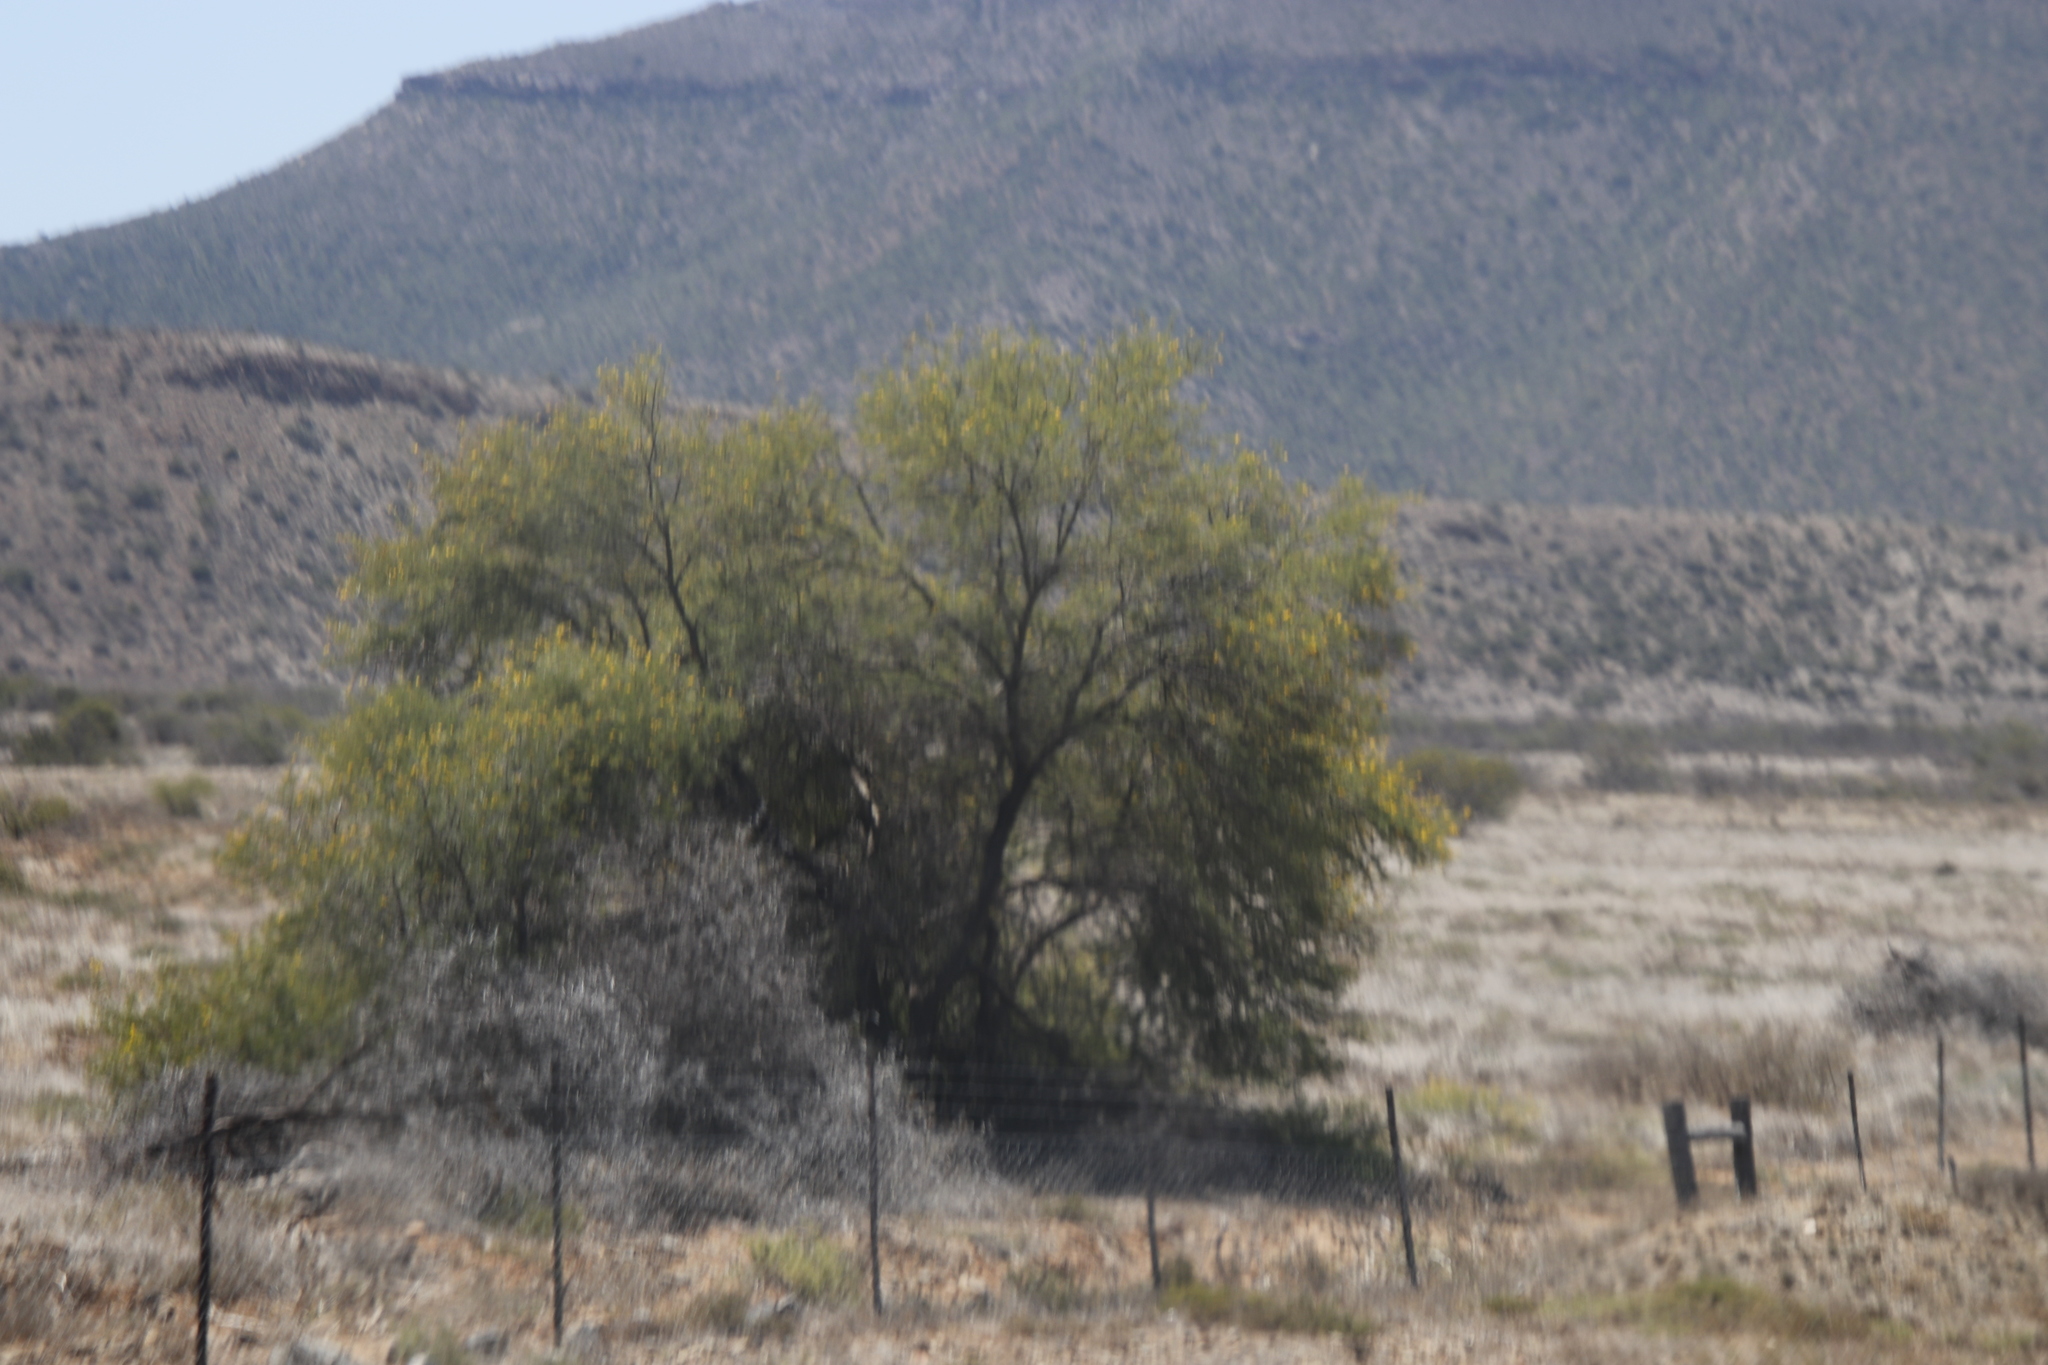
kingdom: Plantae
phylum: Tracheophyta
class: Magnoliopsida
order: Fabales
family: Fabaceae
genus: Vachellia
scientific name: Vachellia karroo
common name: Sweet thorn
